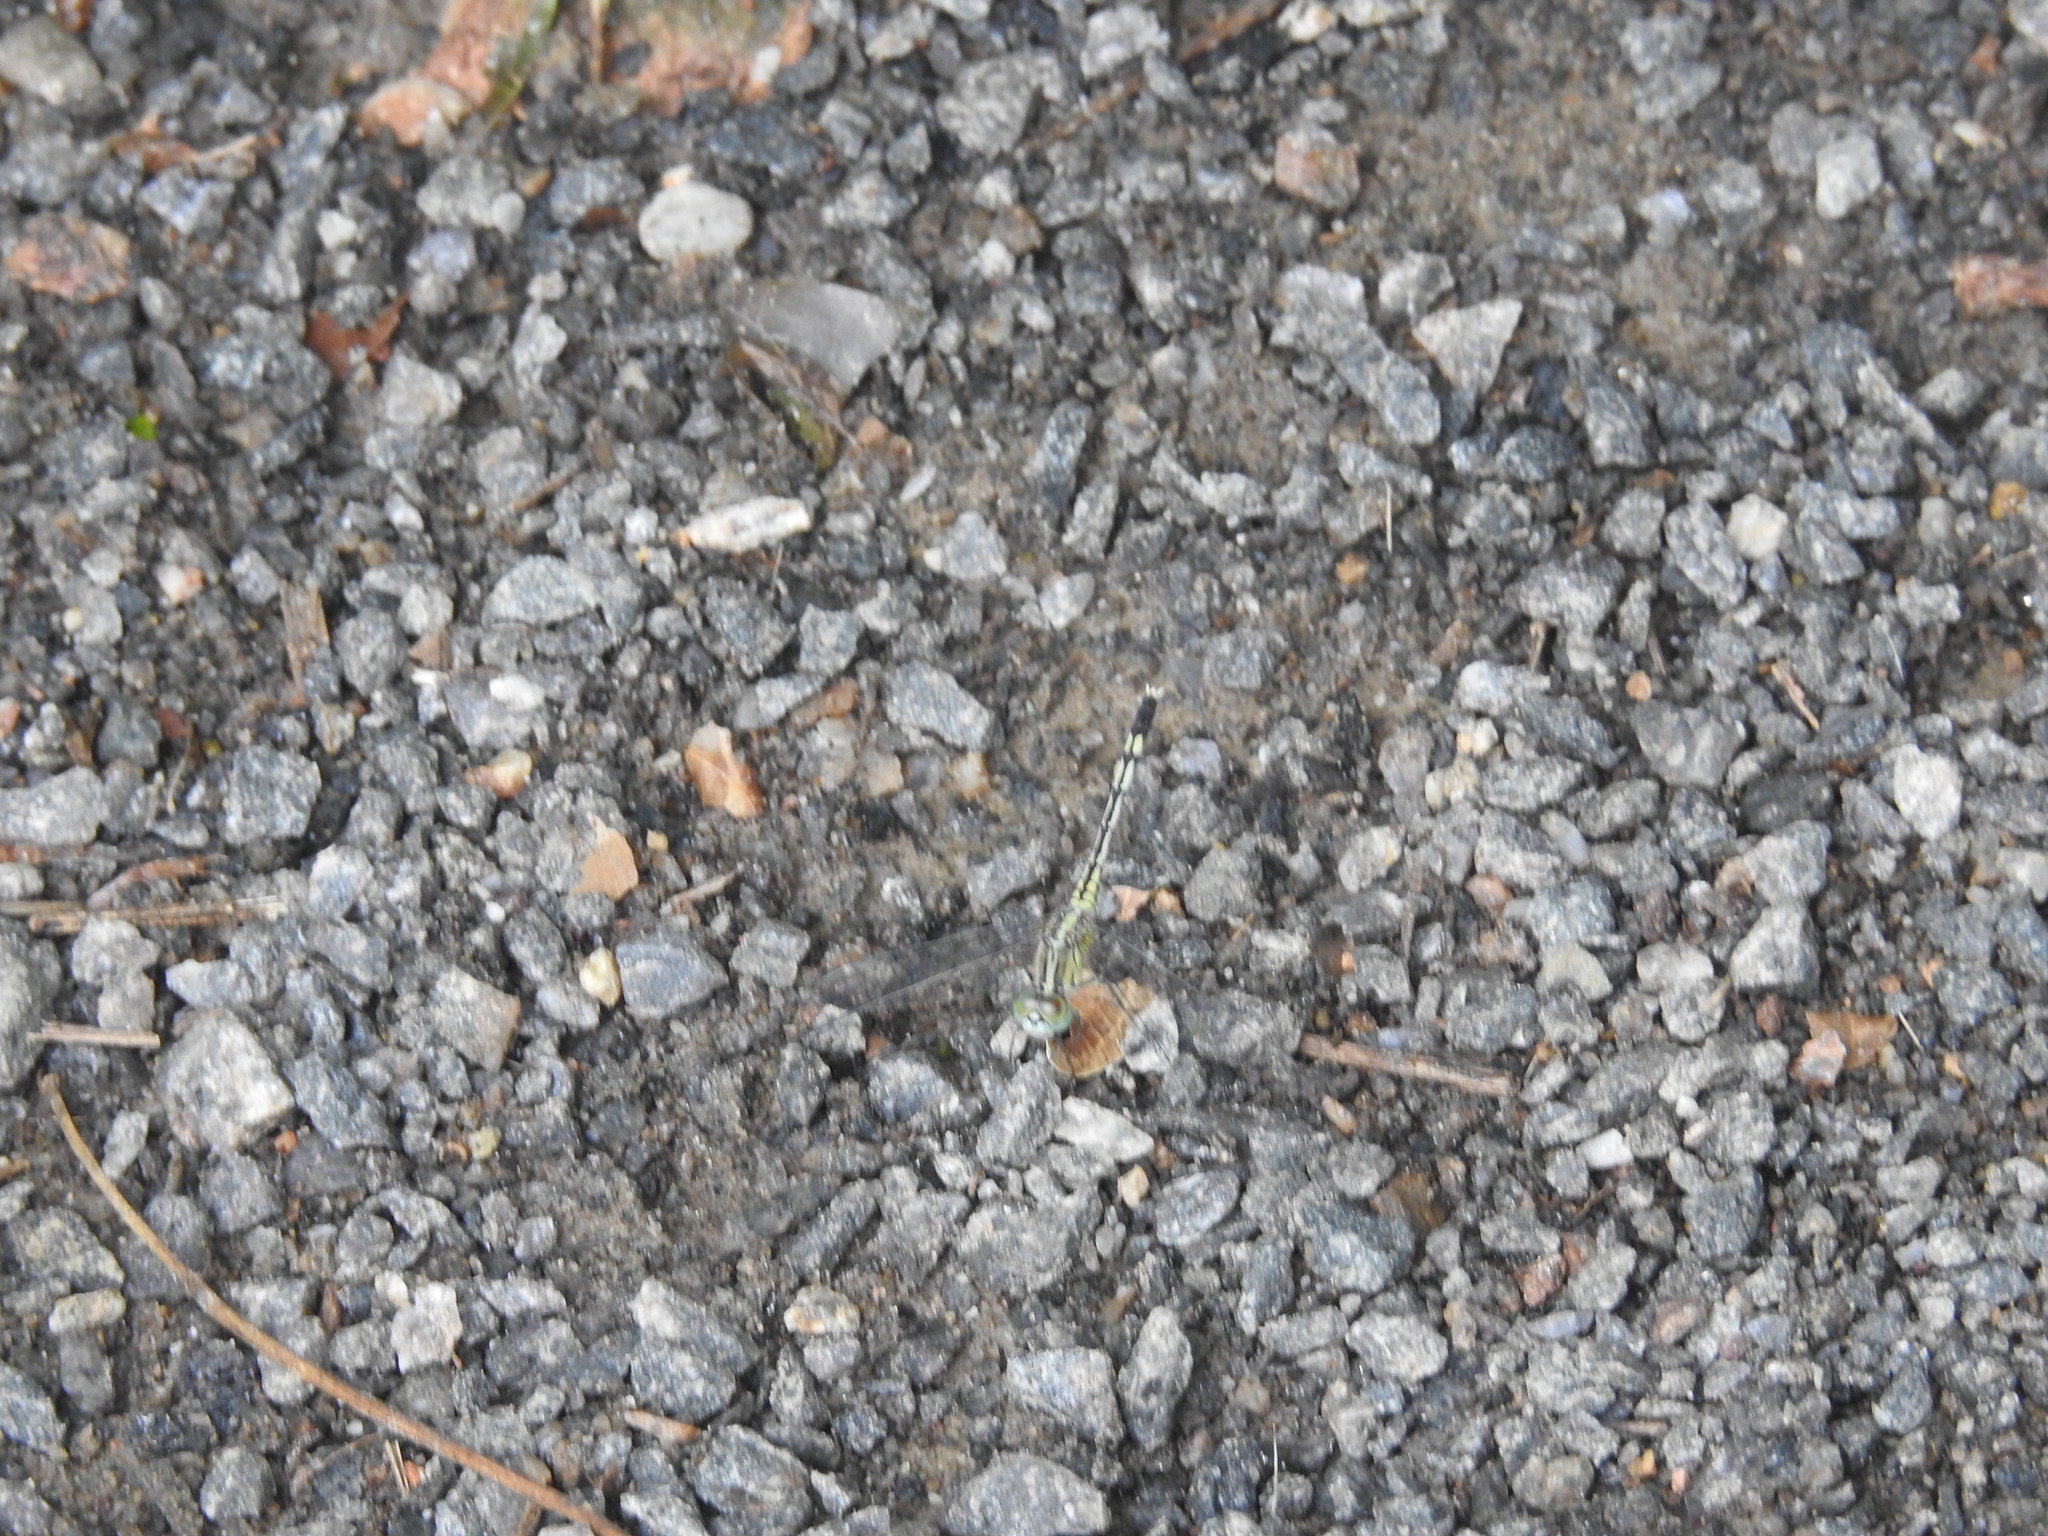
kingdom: Animalia
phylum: Arthropoda
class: Insecta
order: Odonata
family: Libellulidae
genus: Diplacodes
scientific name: Diplacodes trivialis
